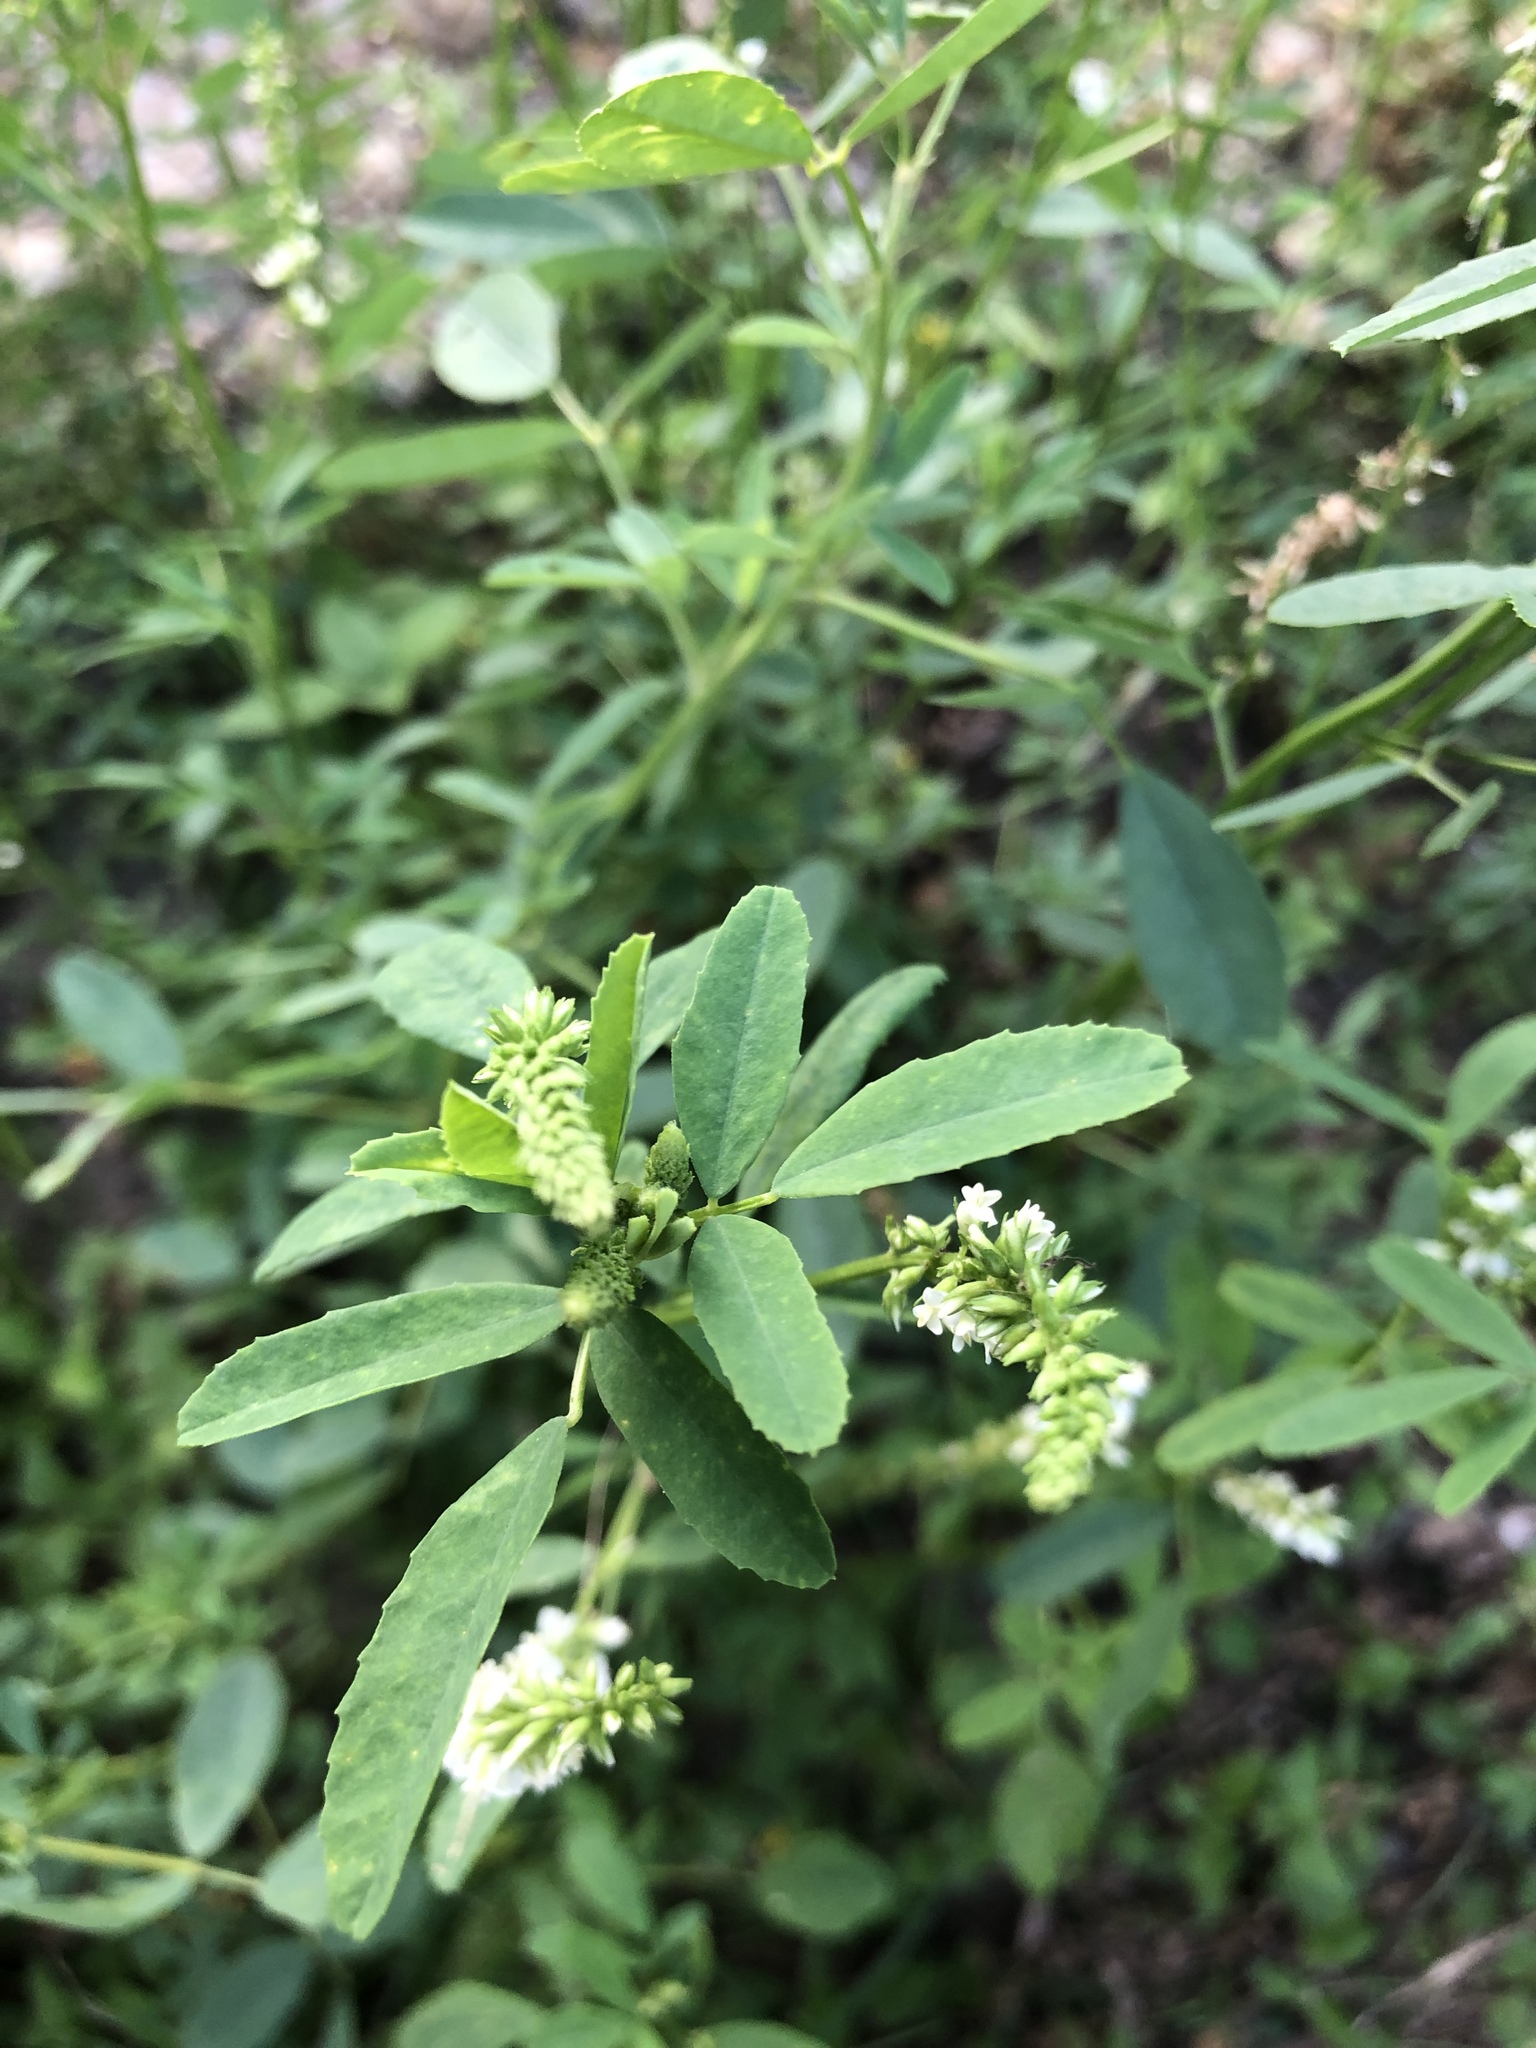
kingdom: Plantae
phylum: Tracheophyta
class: Magnoliopsida
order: Fabales
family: Fabaceae
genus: Melilotus
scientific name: Melilotus albus
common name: White melilot
